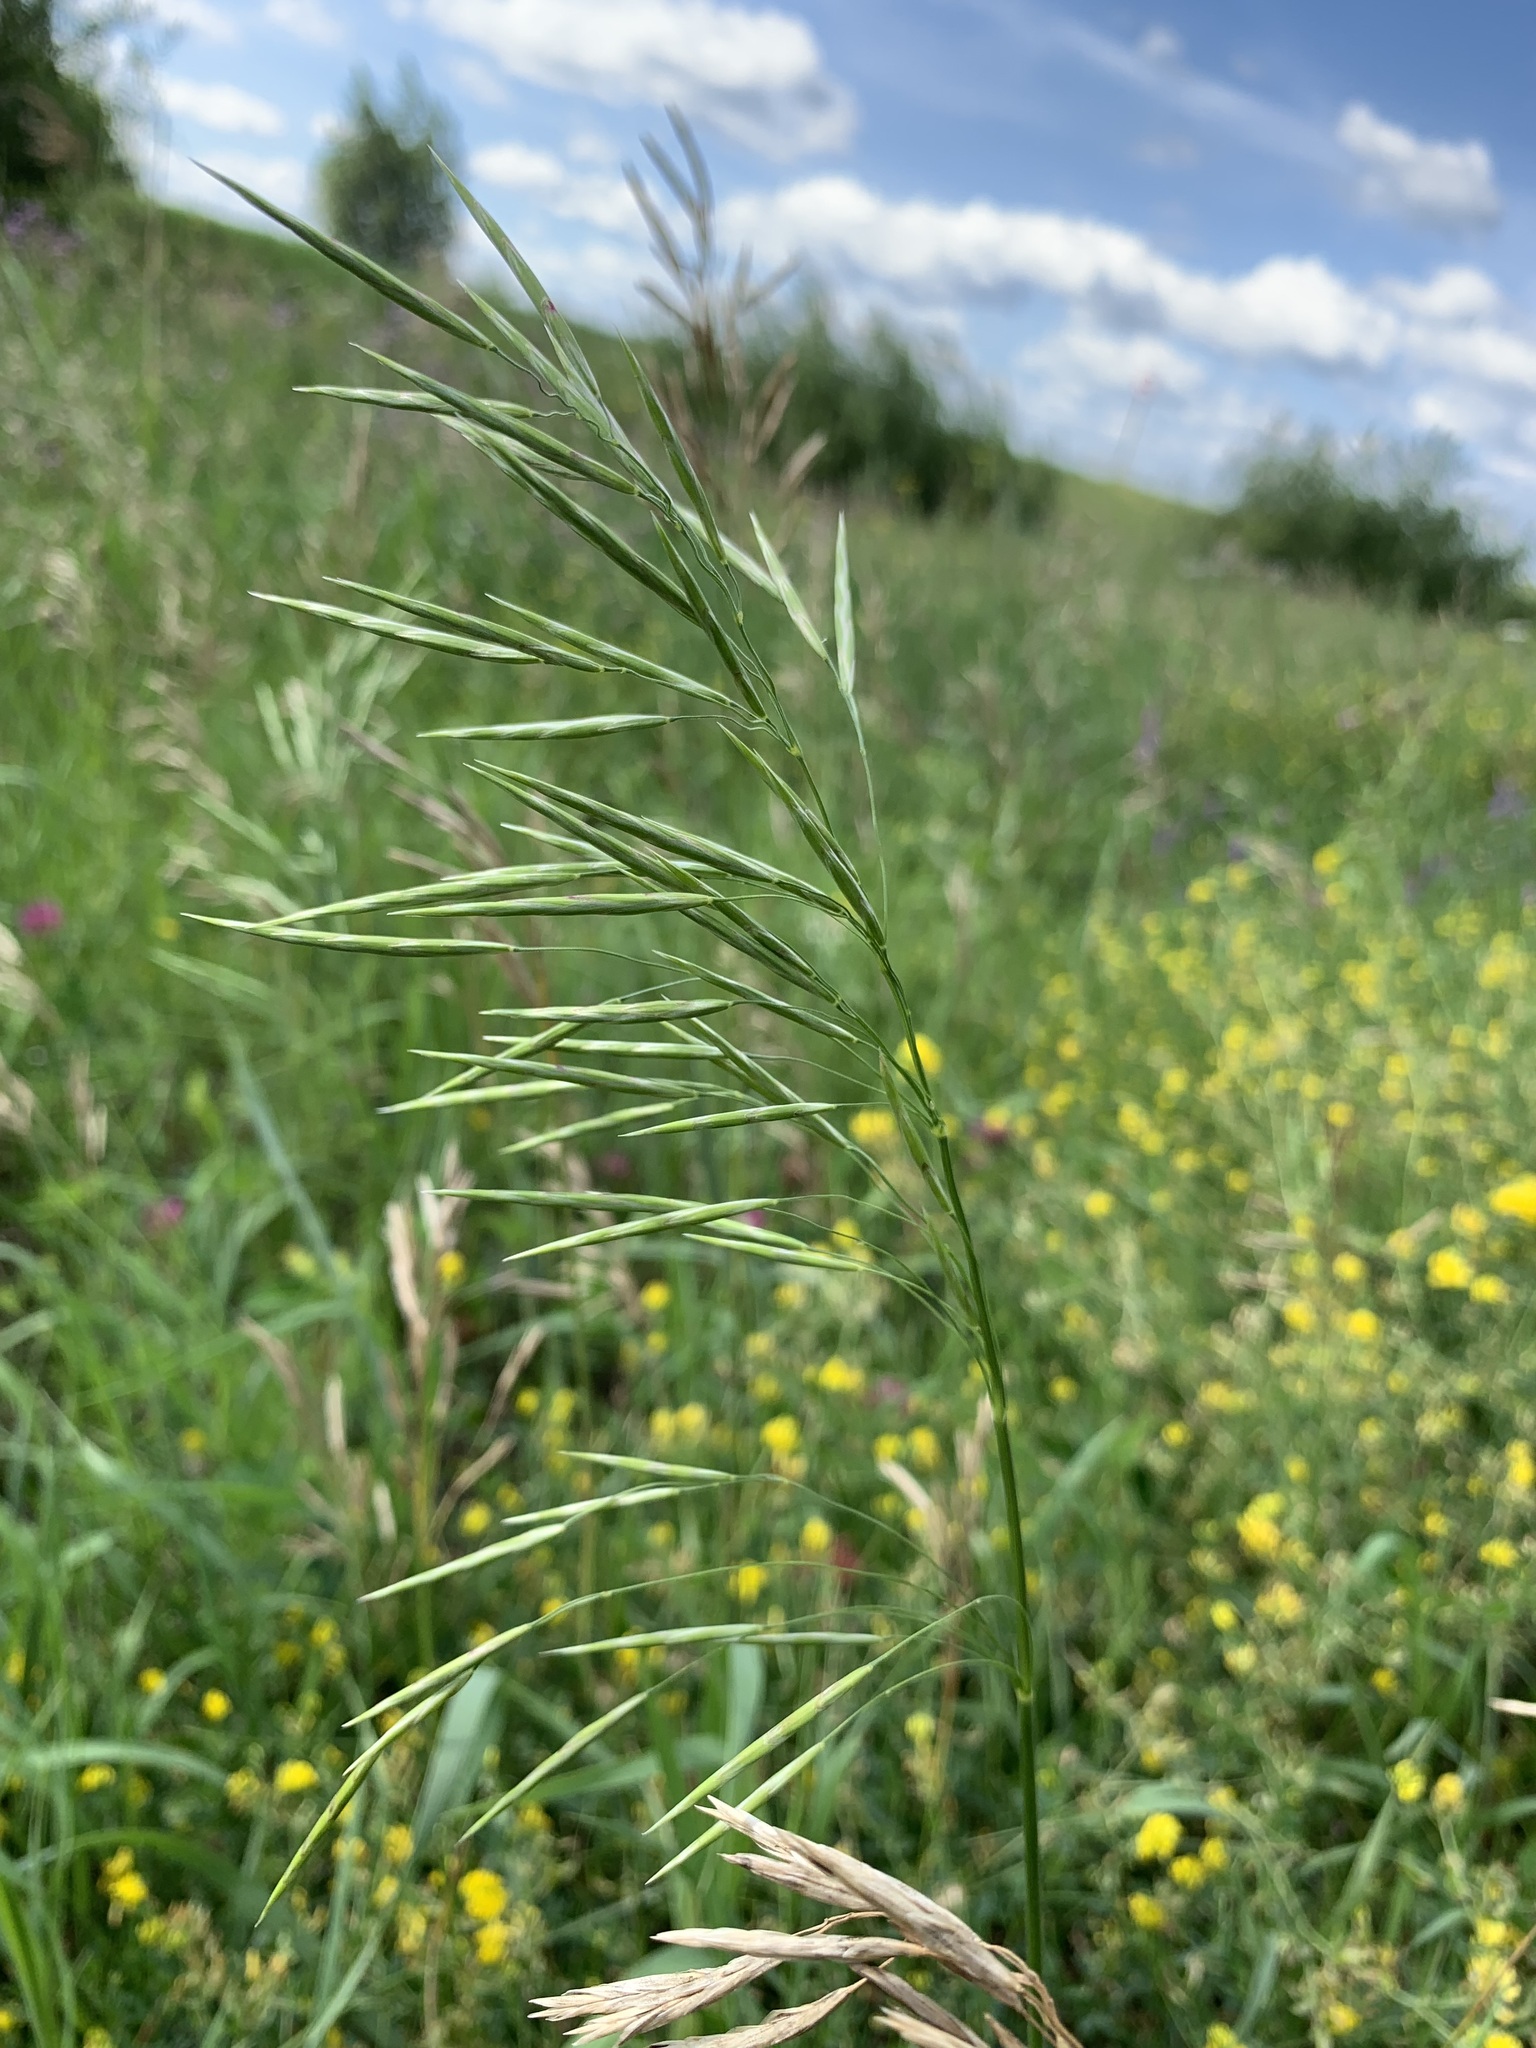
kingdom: Plantae
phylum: Tracheophyta
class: Liliopsida
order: Poales
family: Poaceae
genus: Bromus
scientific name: Bromus inermis
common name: Smooth brome
